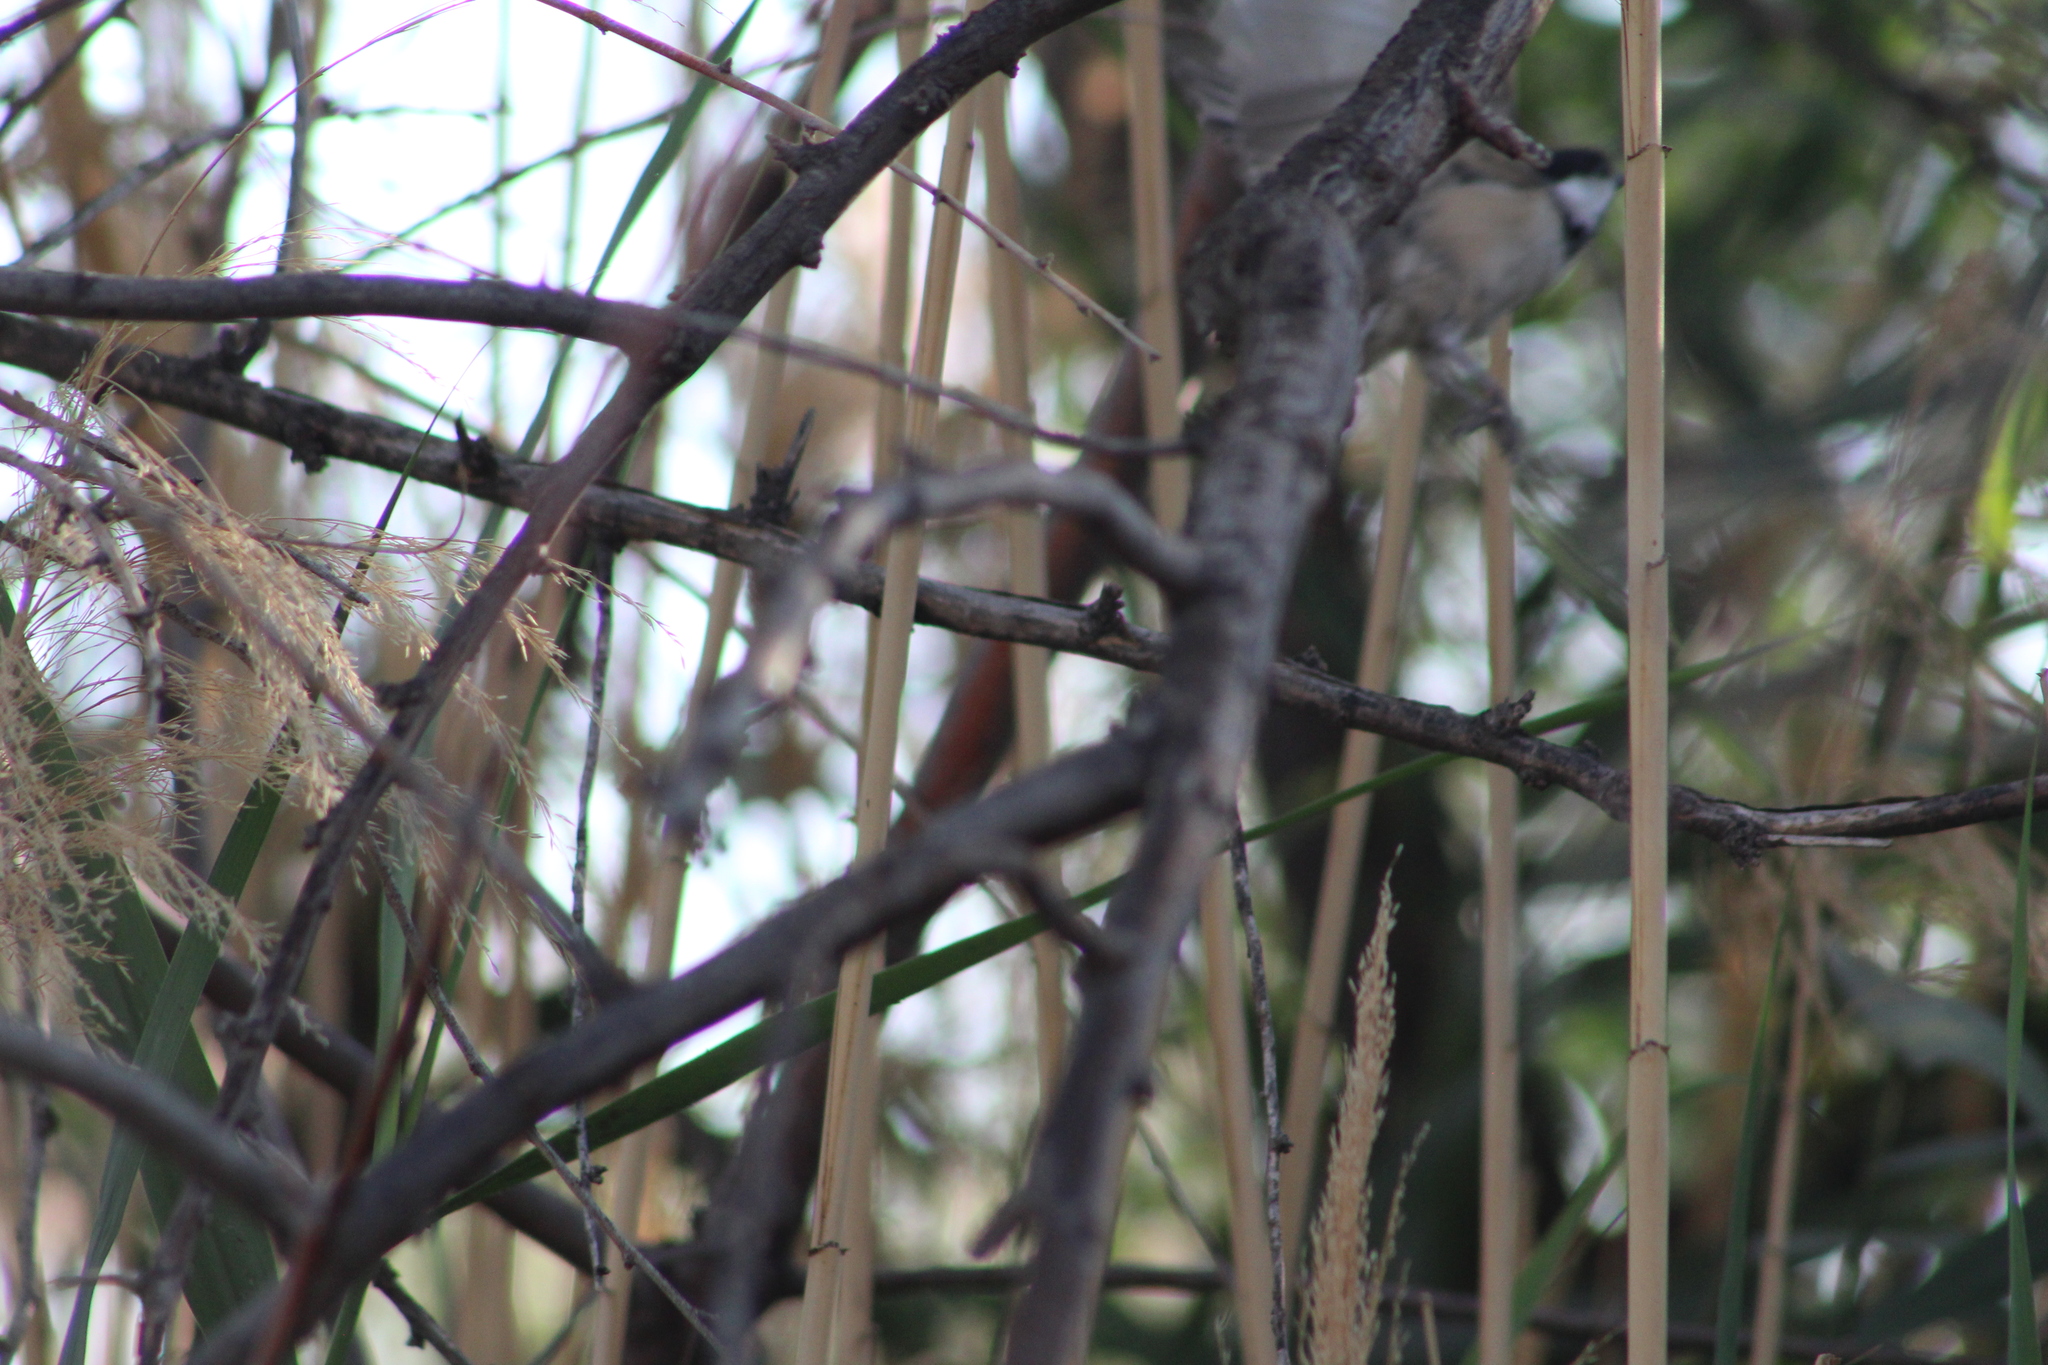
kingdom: Animalia
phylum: Chordata
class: Aves
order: Passeriformes
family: Paridae
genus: Poecile
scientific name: Poecile atricapillus
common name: Black-capped chickadee
